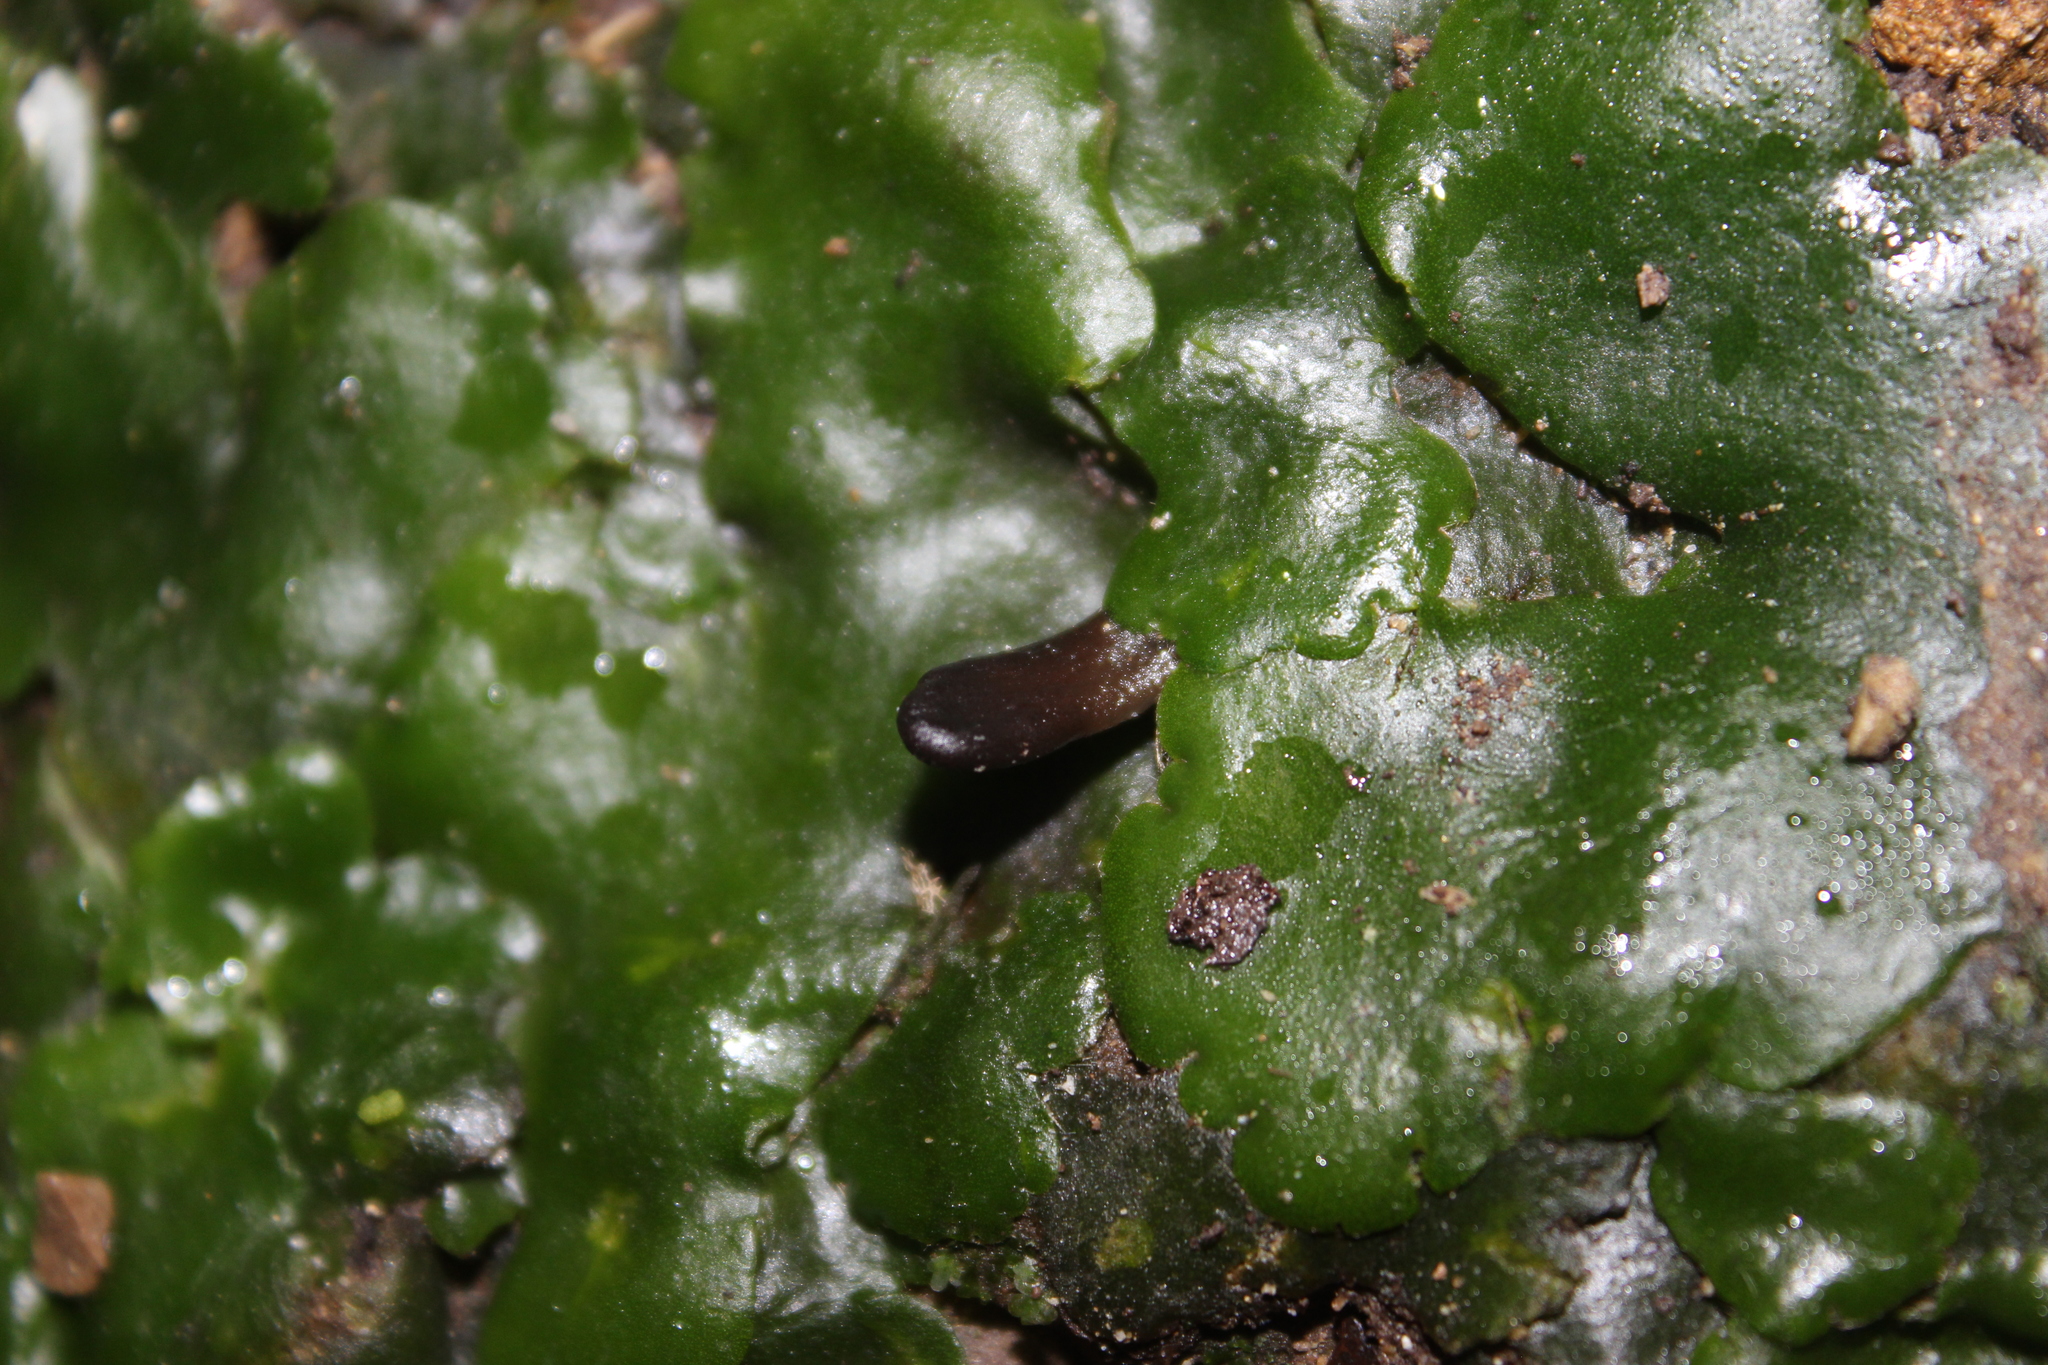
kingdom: Plantae
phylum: Marchantiophyta
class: Marchantiopsida
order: Marchantiales
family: Monocleaceae
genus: Monoclea
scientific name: Monoclea forsteri
